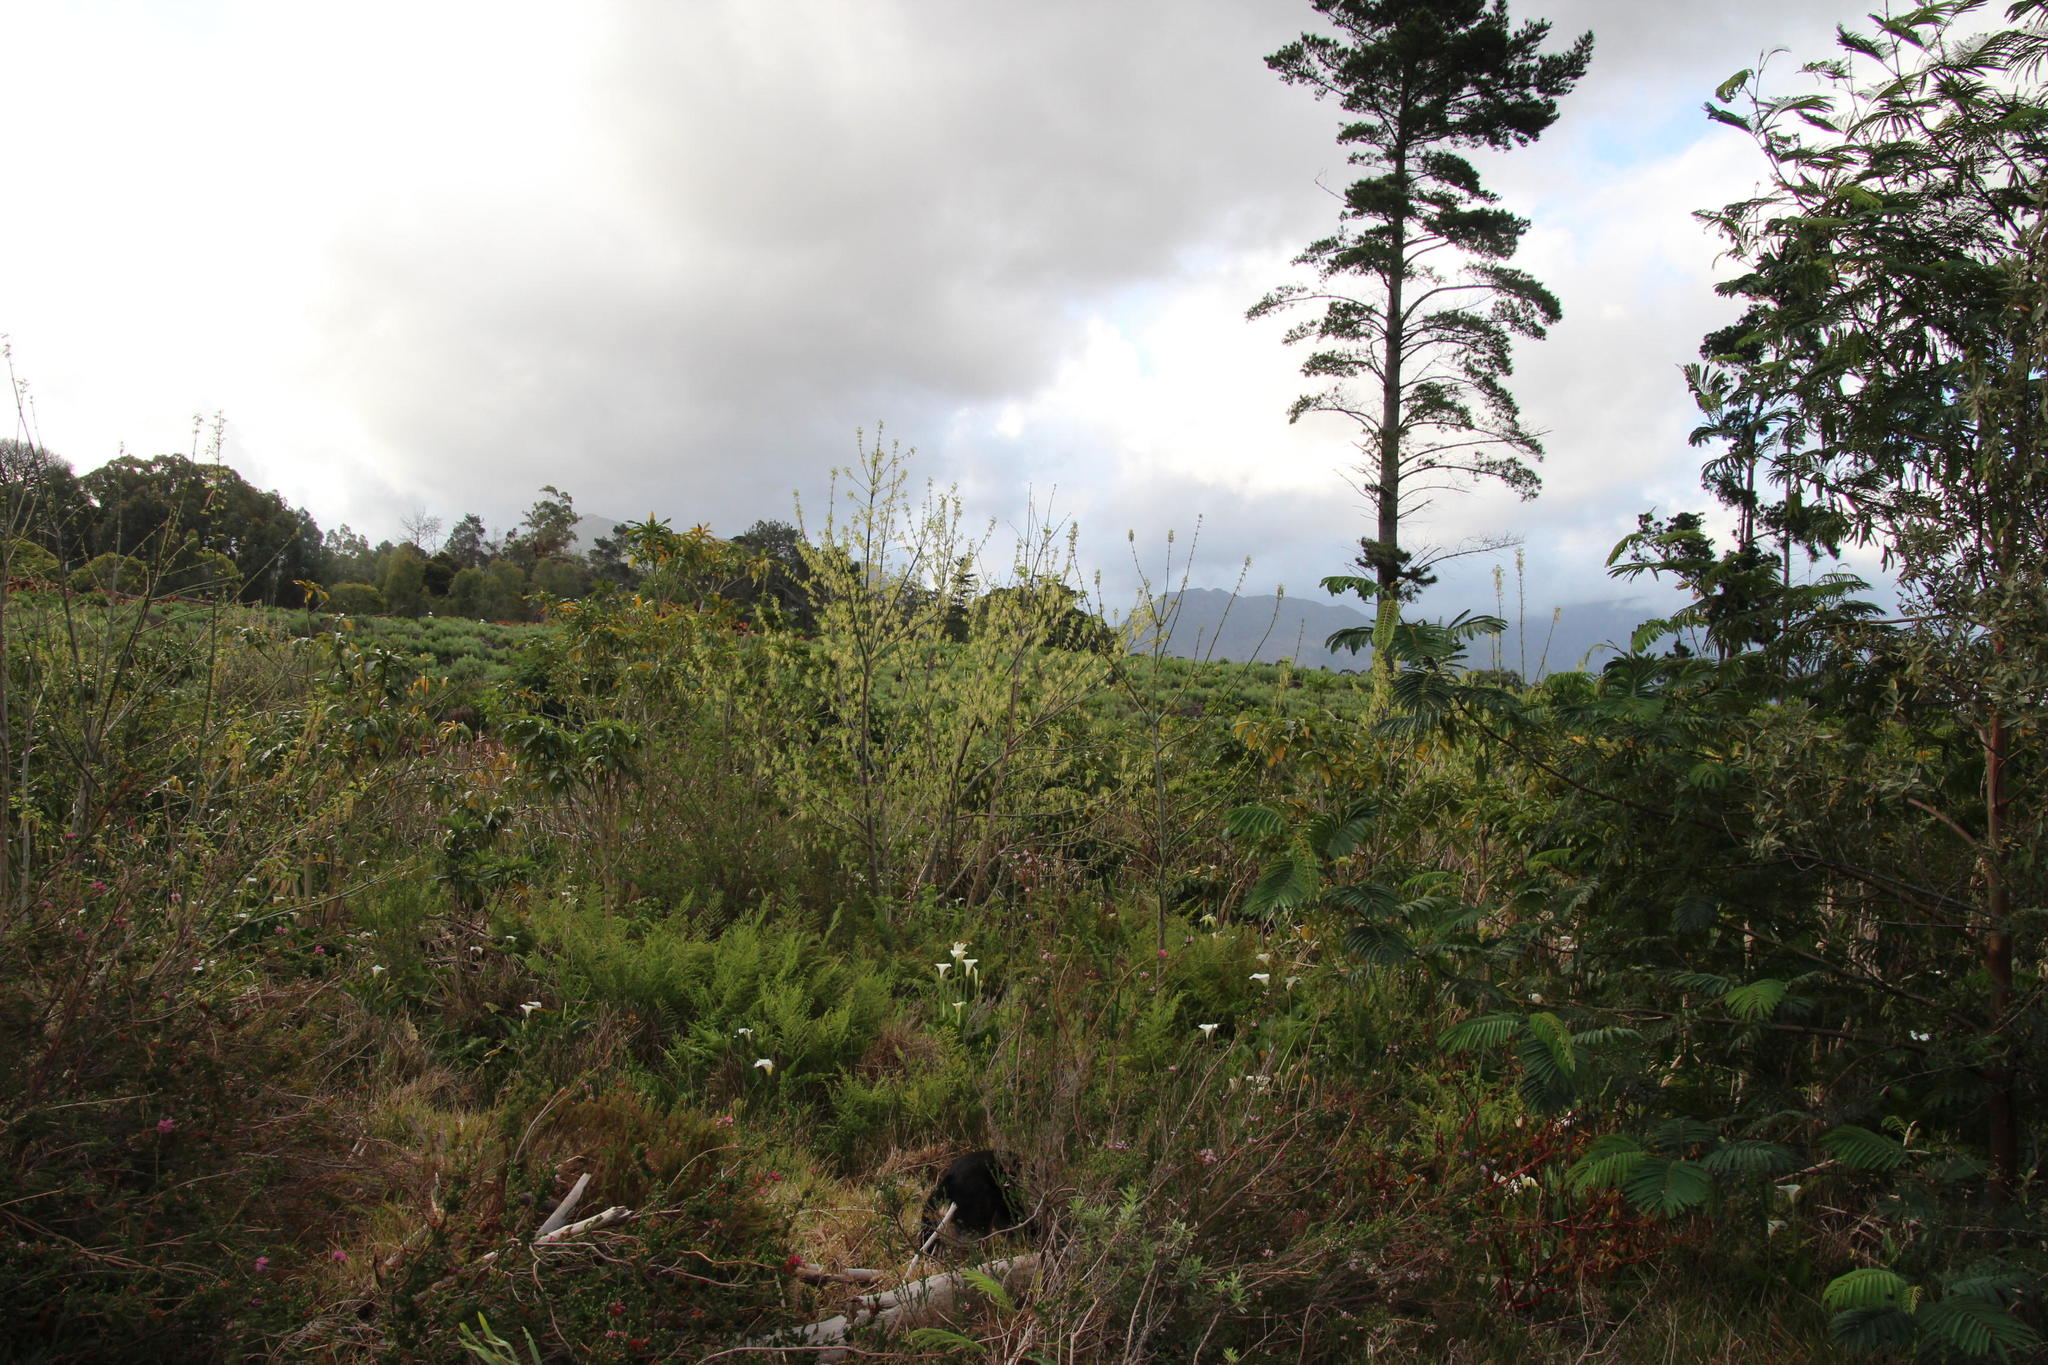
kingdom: Plantae
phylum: Tracheophyta
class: Magnoliopsida
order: Malpighiales
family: Salicaceae
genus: Salix
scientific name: Salix caprea
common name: Goat willow
